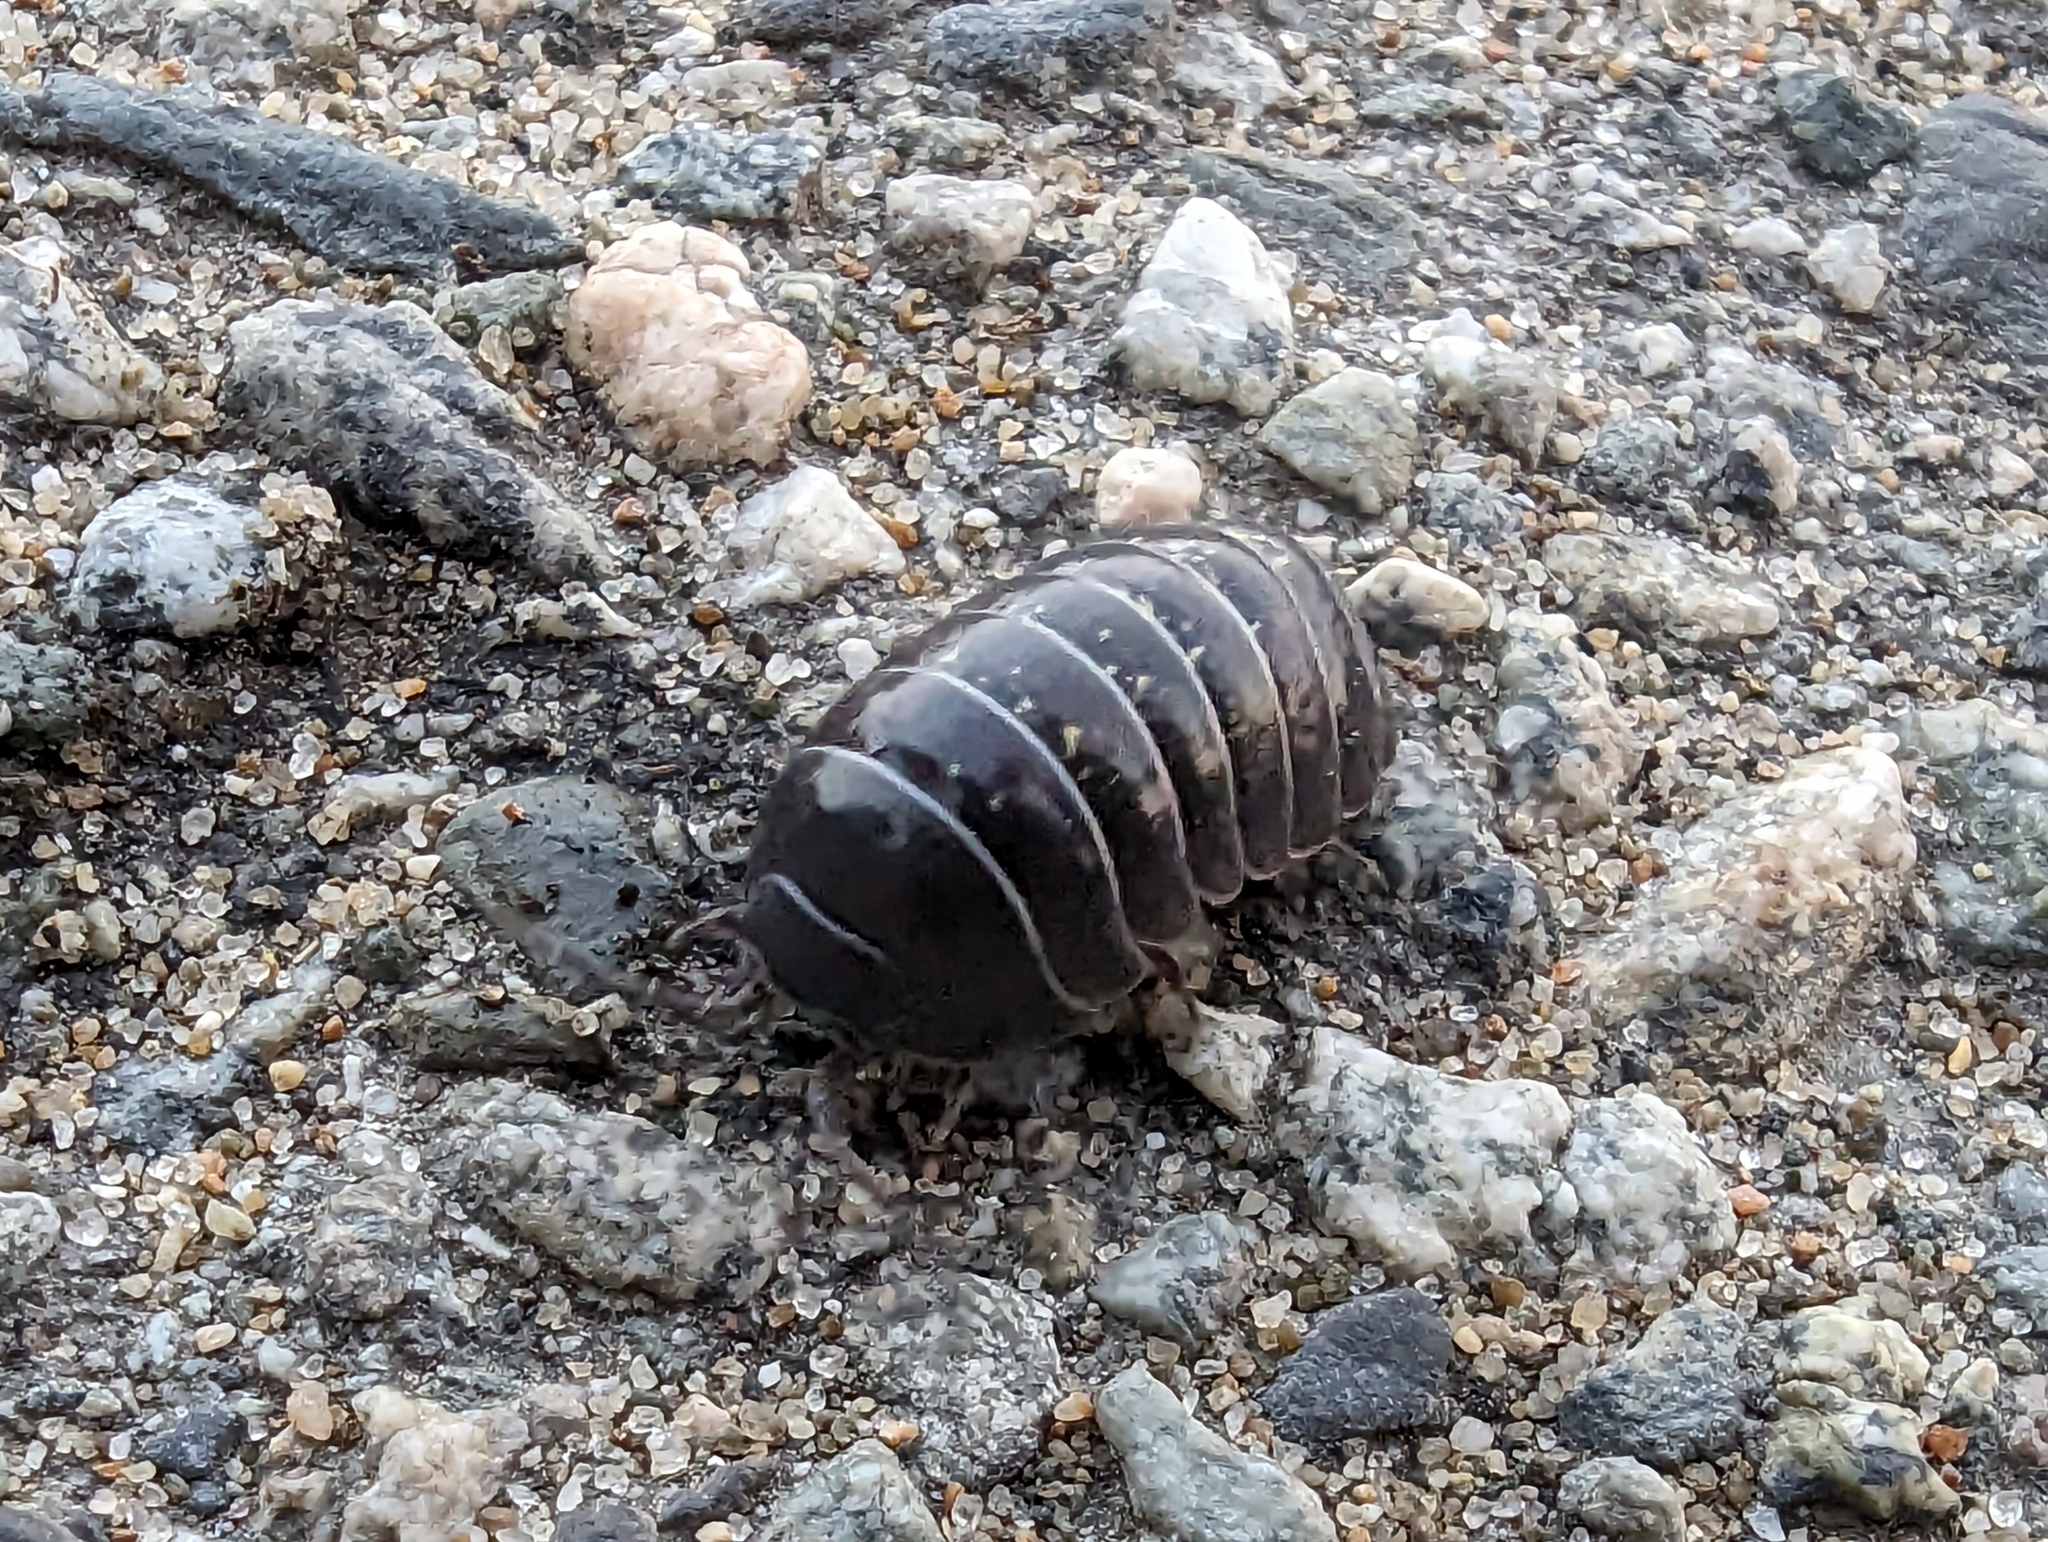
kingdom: Animalia
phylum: Arthropoda
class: Malacostraca
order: Isopoda
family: Armadillidiidae
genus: Armadillidium
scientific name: Armadillidium vulgare
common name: Common pill woodlouse
